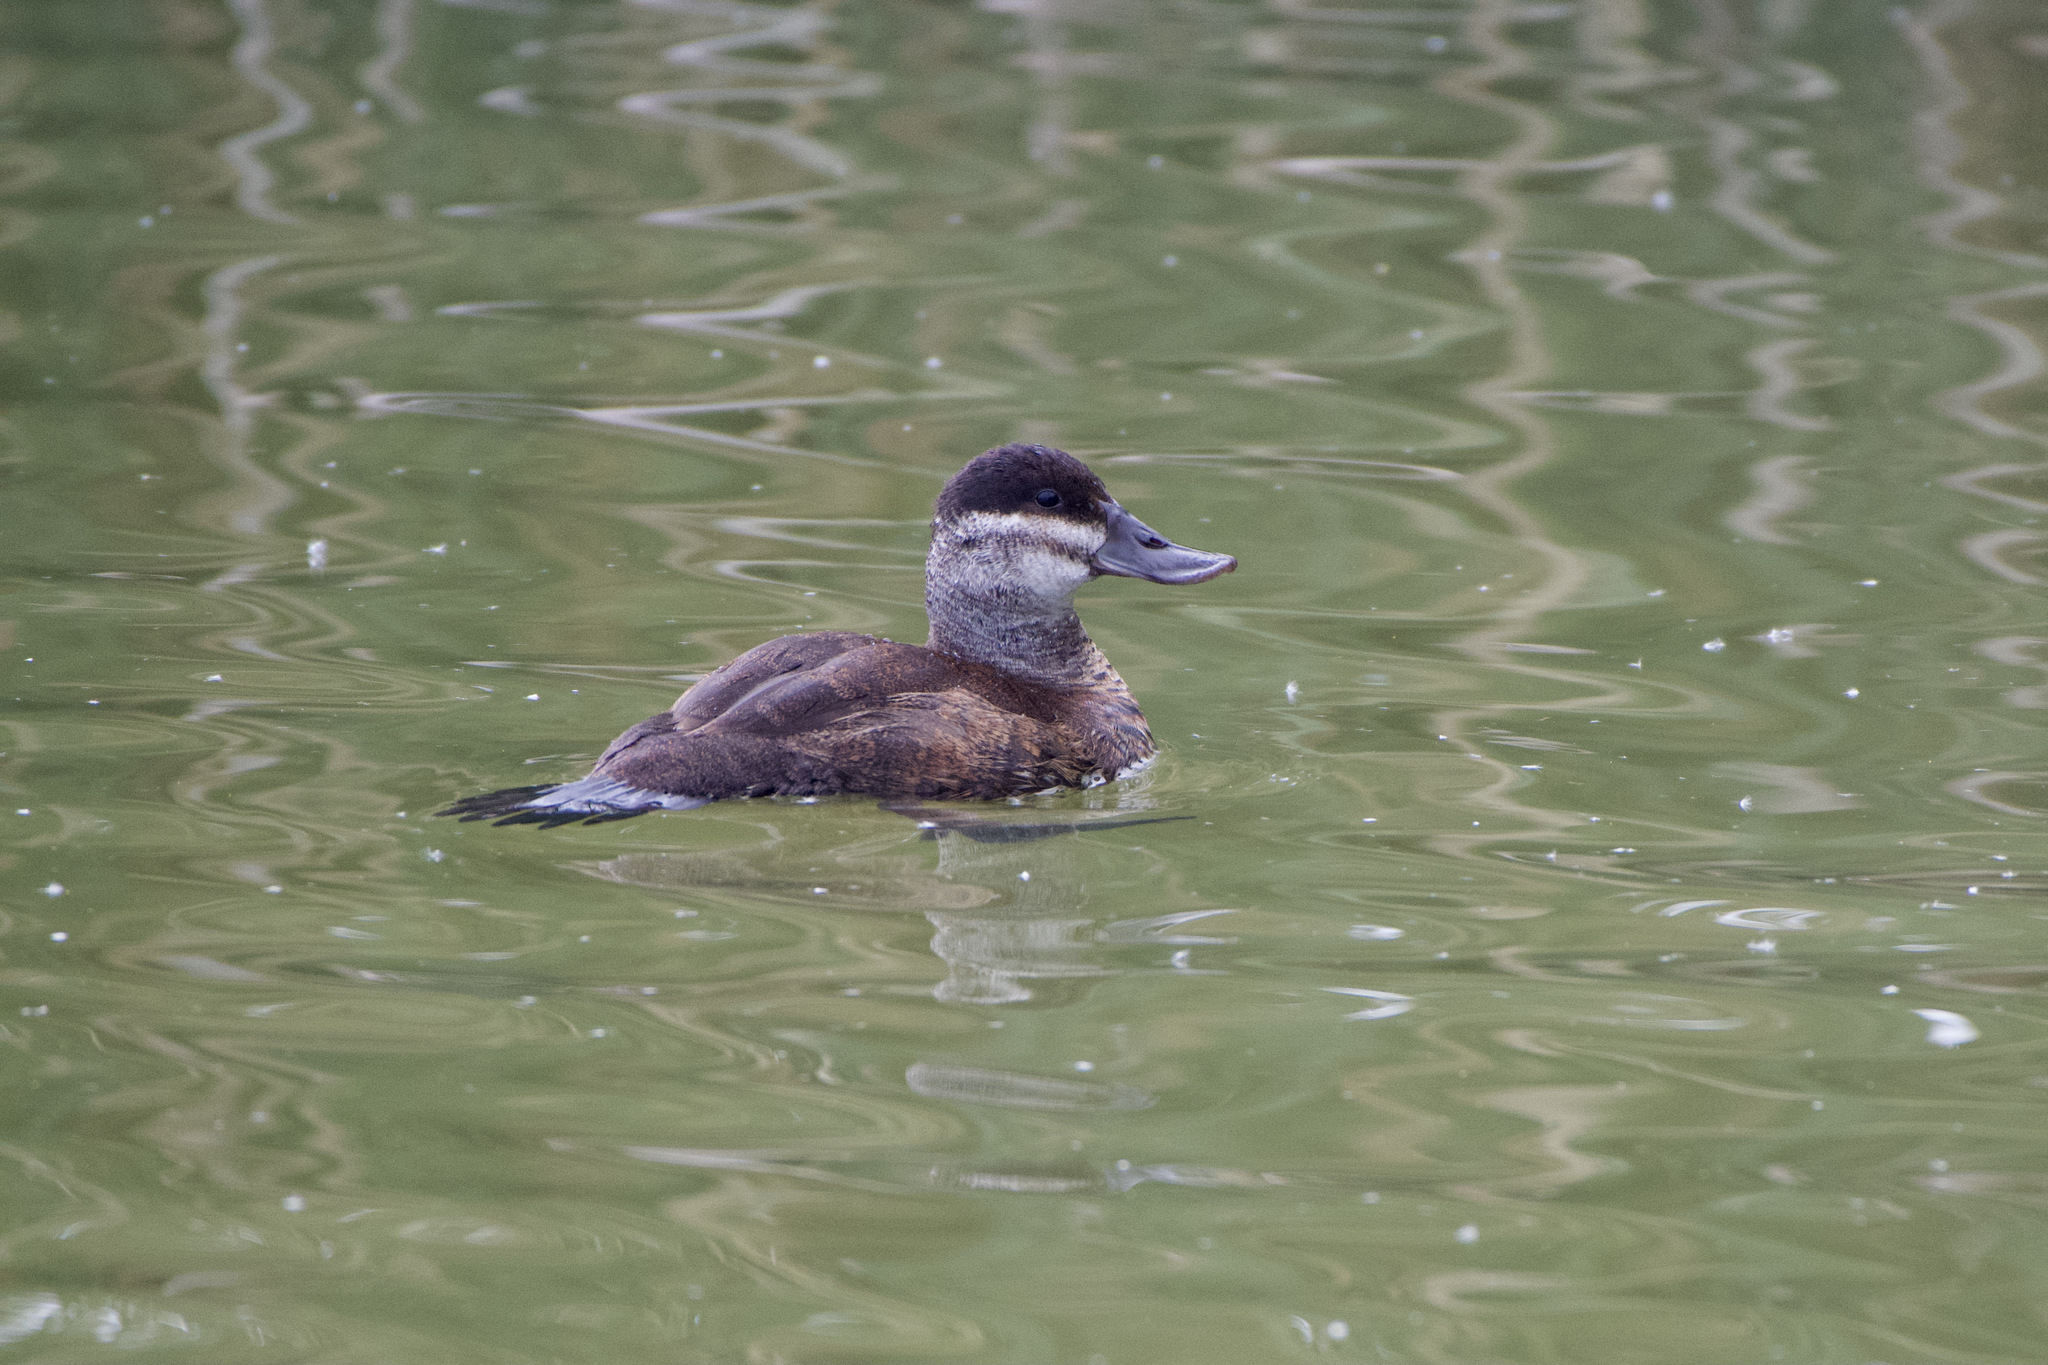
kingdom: Animalia
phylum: Chordata
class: Aves
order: Anseriformes
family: Anatidae
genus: Oxyura
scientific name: Oxyura jamaicensis
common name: Ruddy duck
